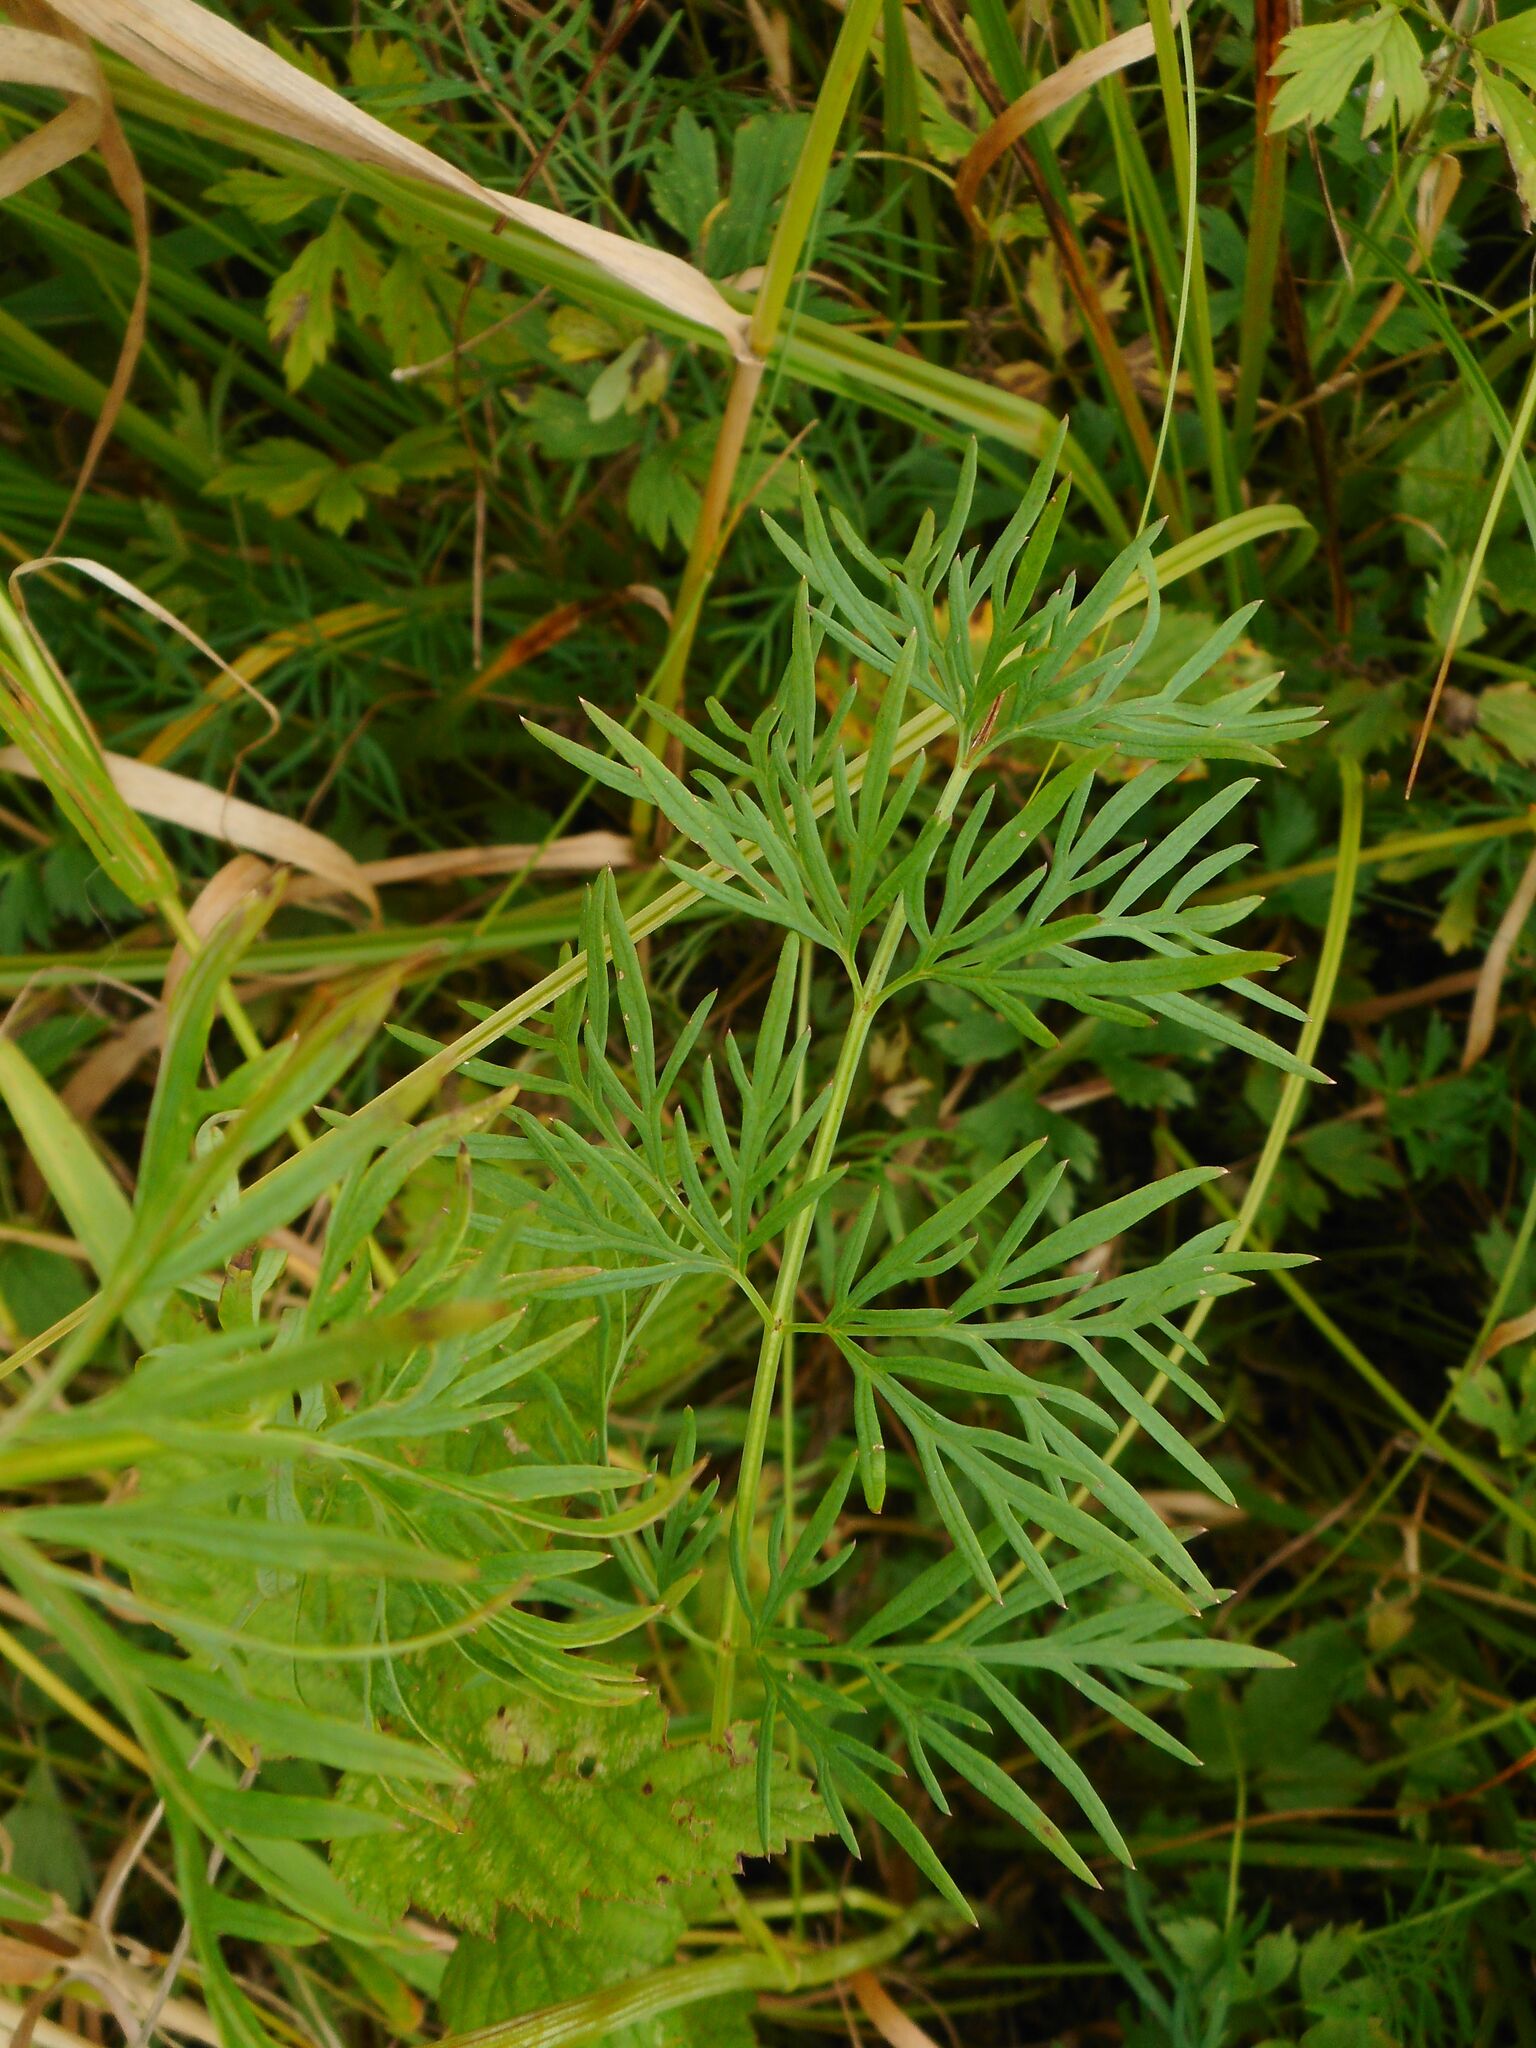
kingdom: Plantae
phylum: Tracheophyta
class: Magnoliopsida
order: Apiales
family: Apiaceae
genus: Kadenia
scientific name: Kadenia dubia
